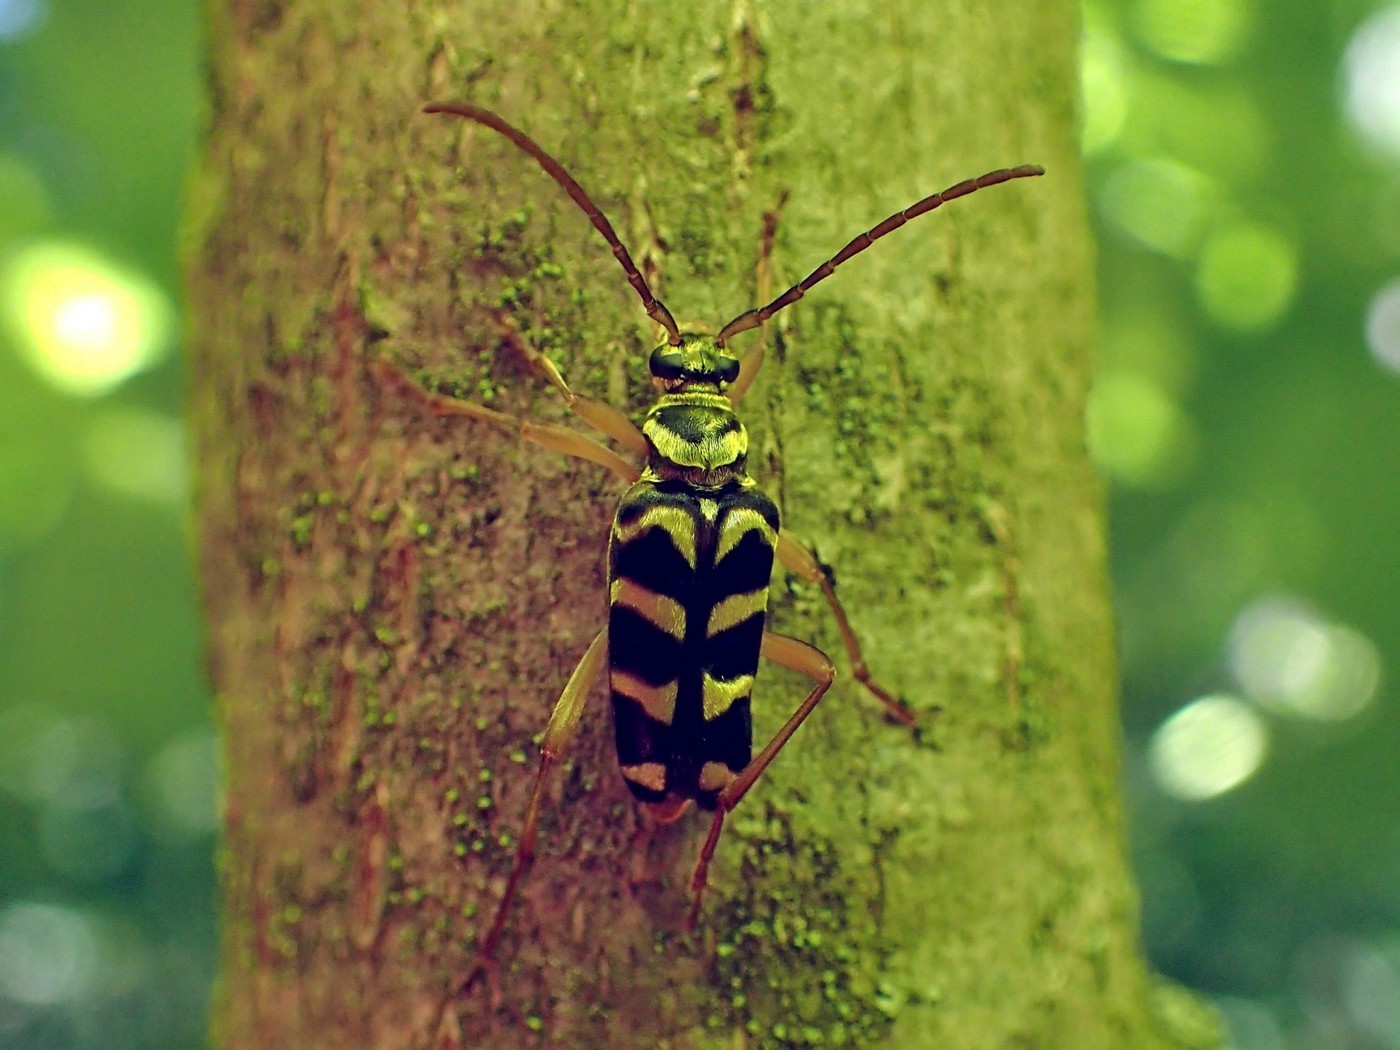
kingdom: Animalia
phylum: Arthropoda
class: Insecta
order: Coleoptera
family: Cerambycidae
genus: Strophiona
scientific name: Strophiona nitens
